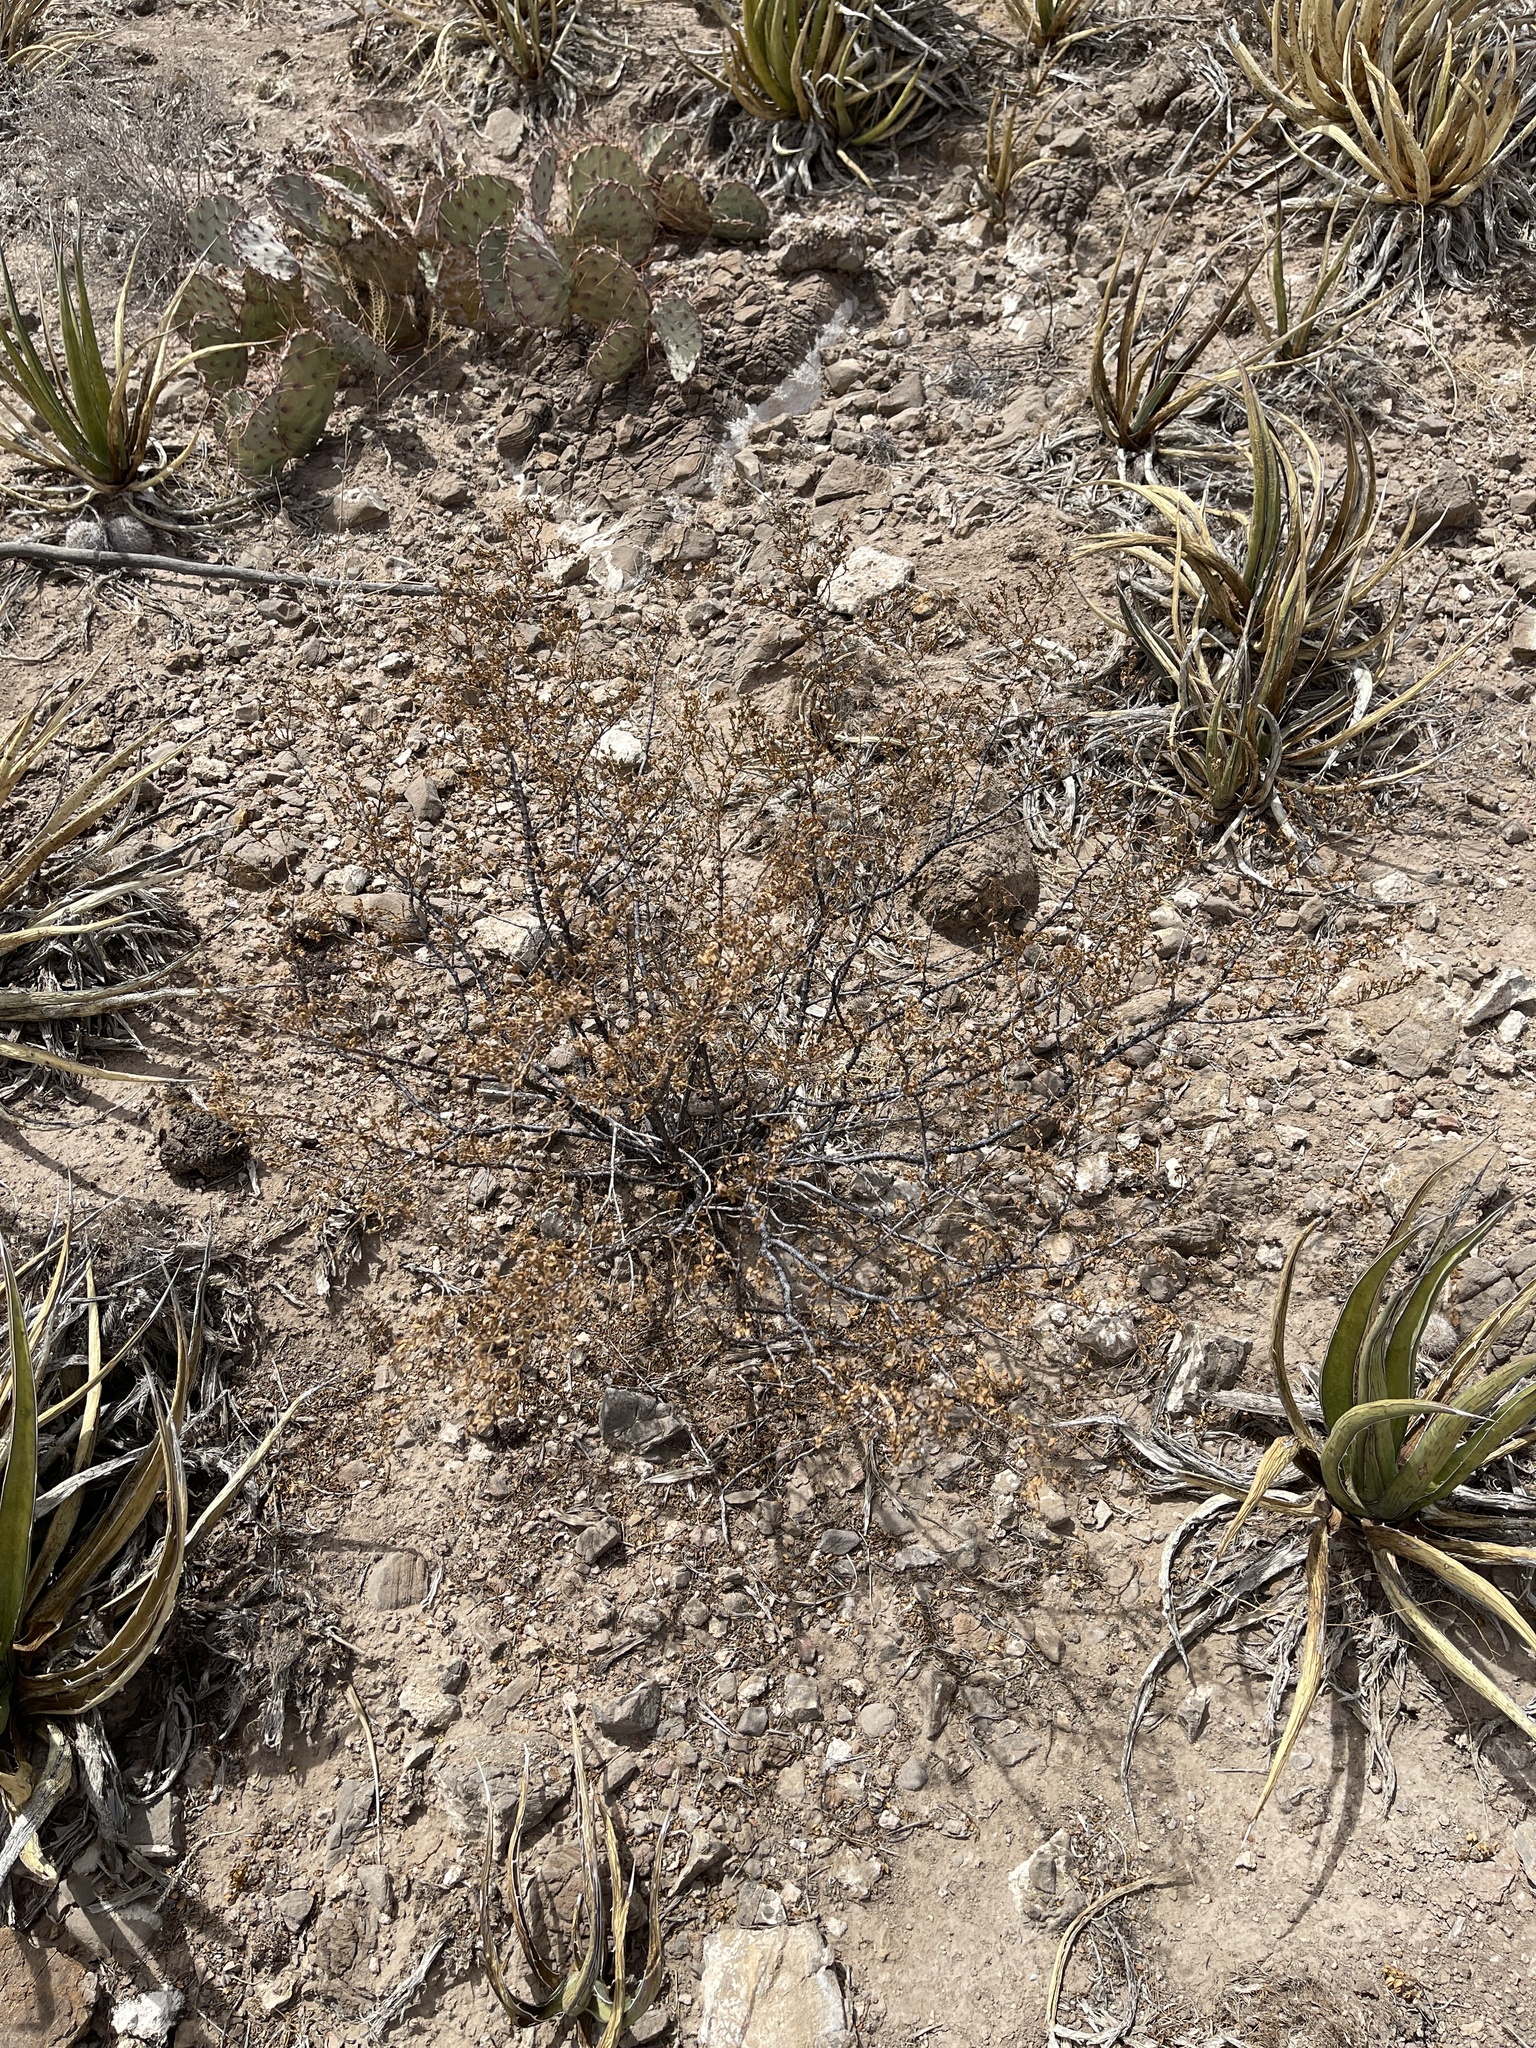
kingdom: Plantae
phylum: Tracheophyta
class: Magnoliopsida
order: Zygophyllales
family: Zygophyllaceae
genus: Larrea
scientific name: Larrea tridentata
